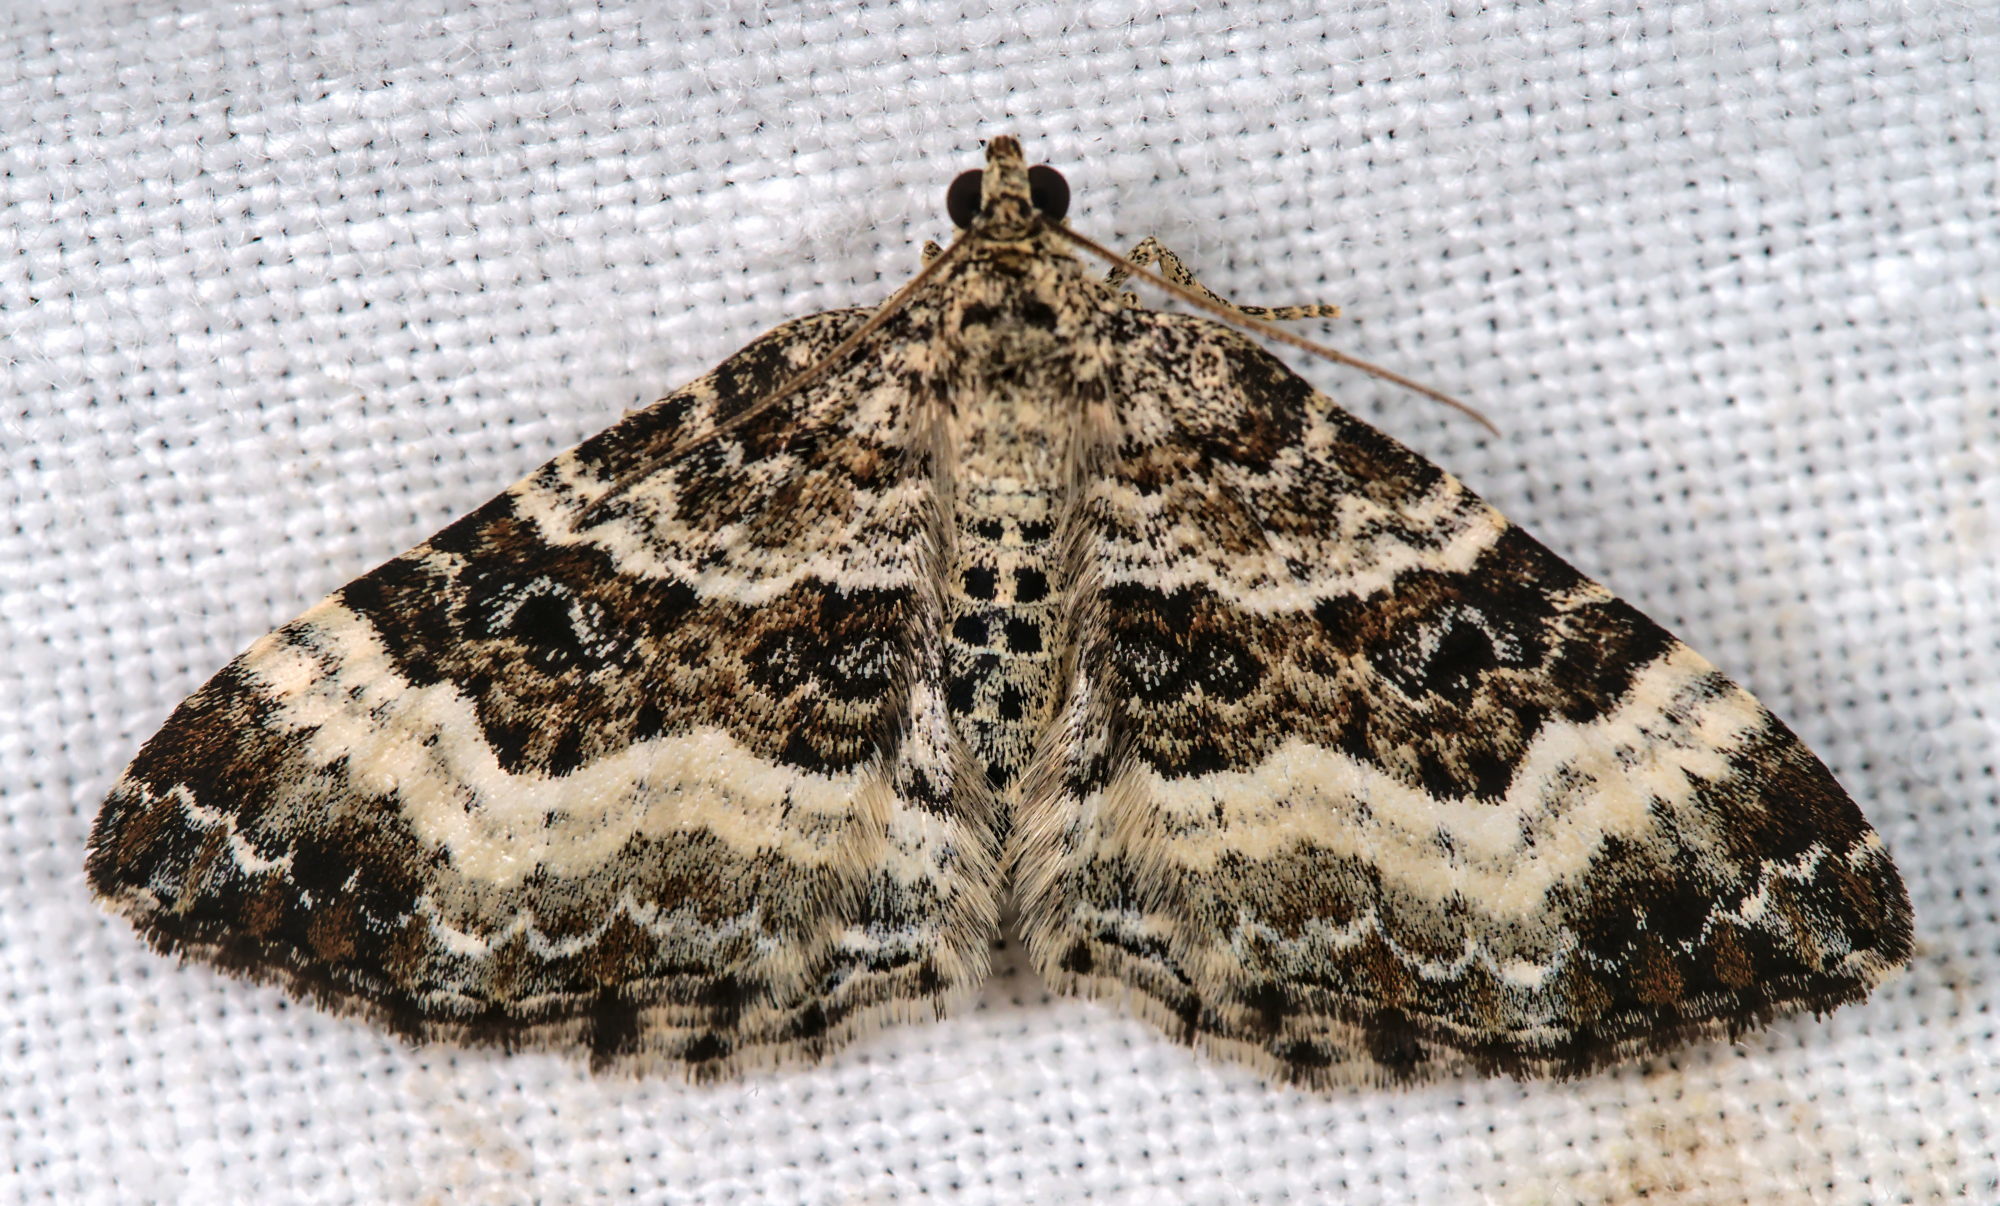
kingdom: Animalia
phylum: Arthropoda
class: Insecta
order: Lepidoptera
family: Geometridae
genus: Epirrhoe
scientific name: Epirrhoe alternata
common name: Common carpet
